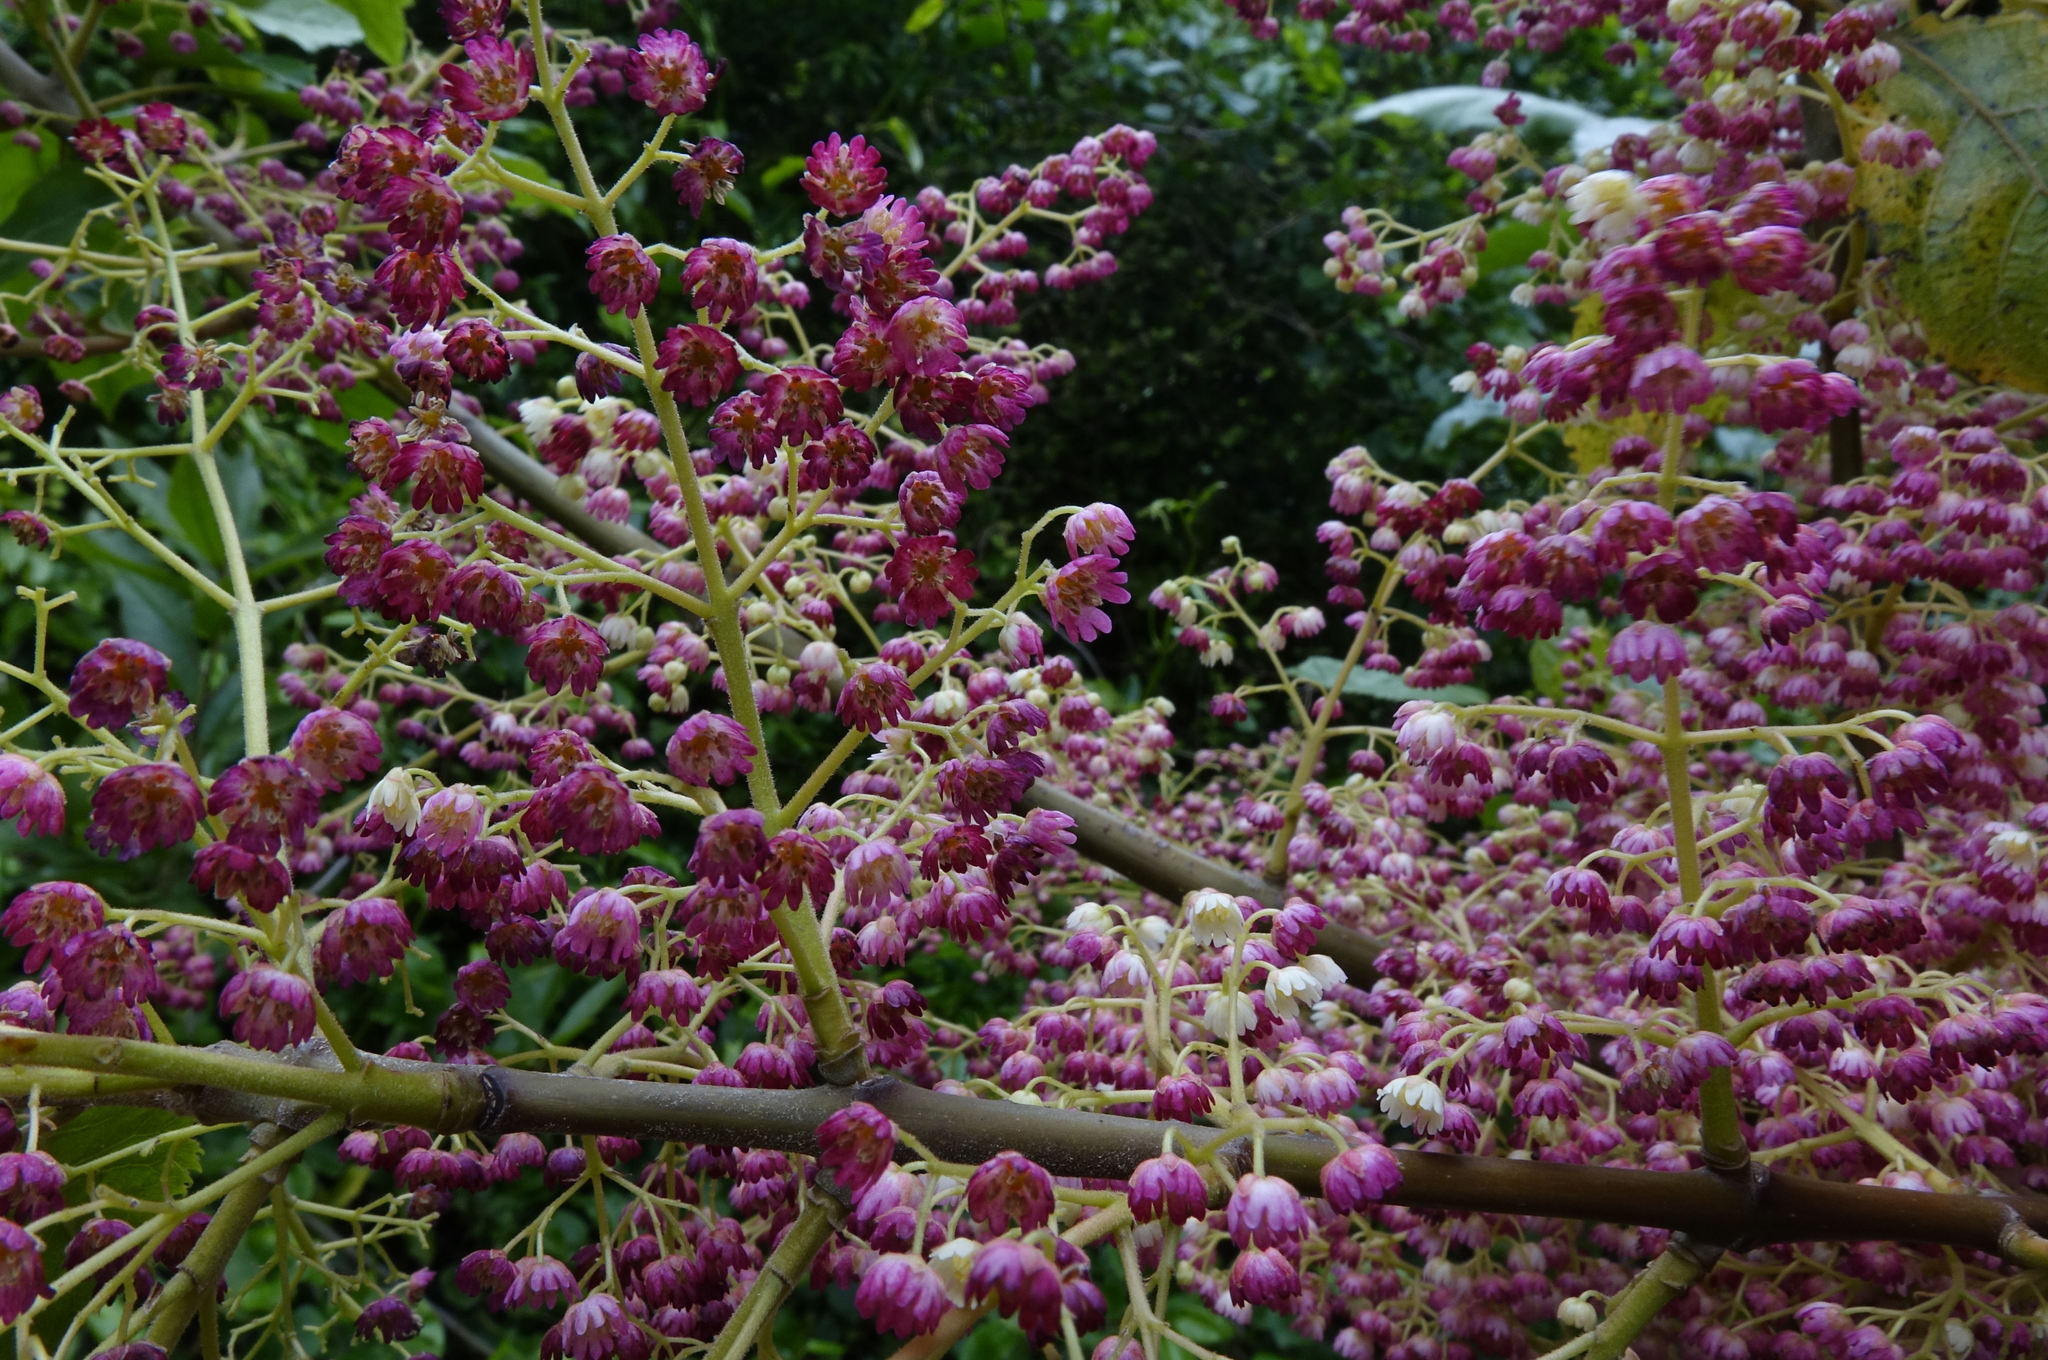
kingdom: Plantae
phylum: Tracheophyta
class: Magnoliopsida
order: Oxalidales
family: Elaeocarpaceae
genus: Aristotelia
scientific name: Aristotelia serrata
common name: New zealand wineberry
